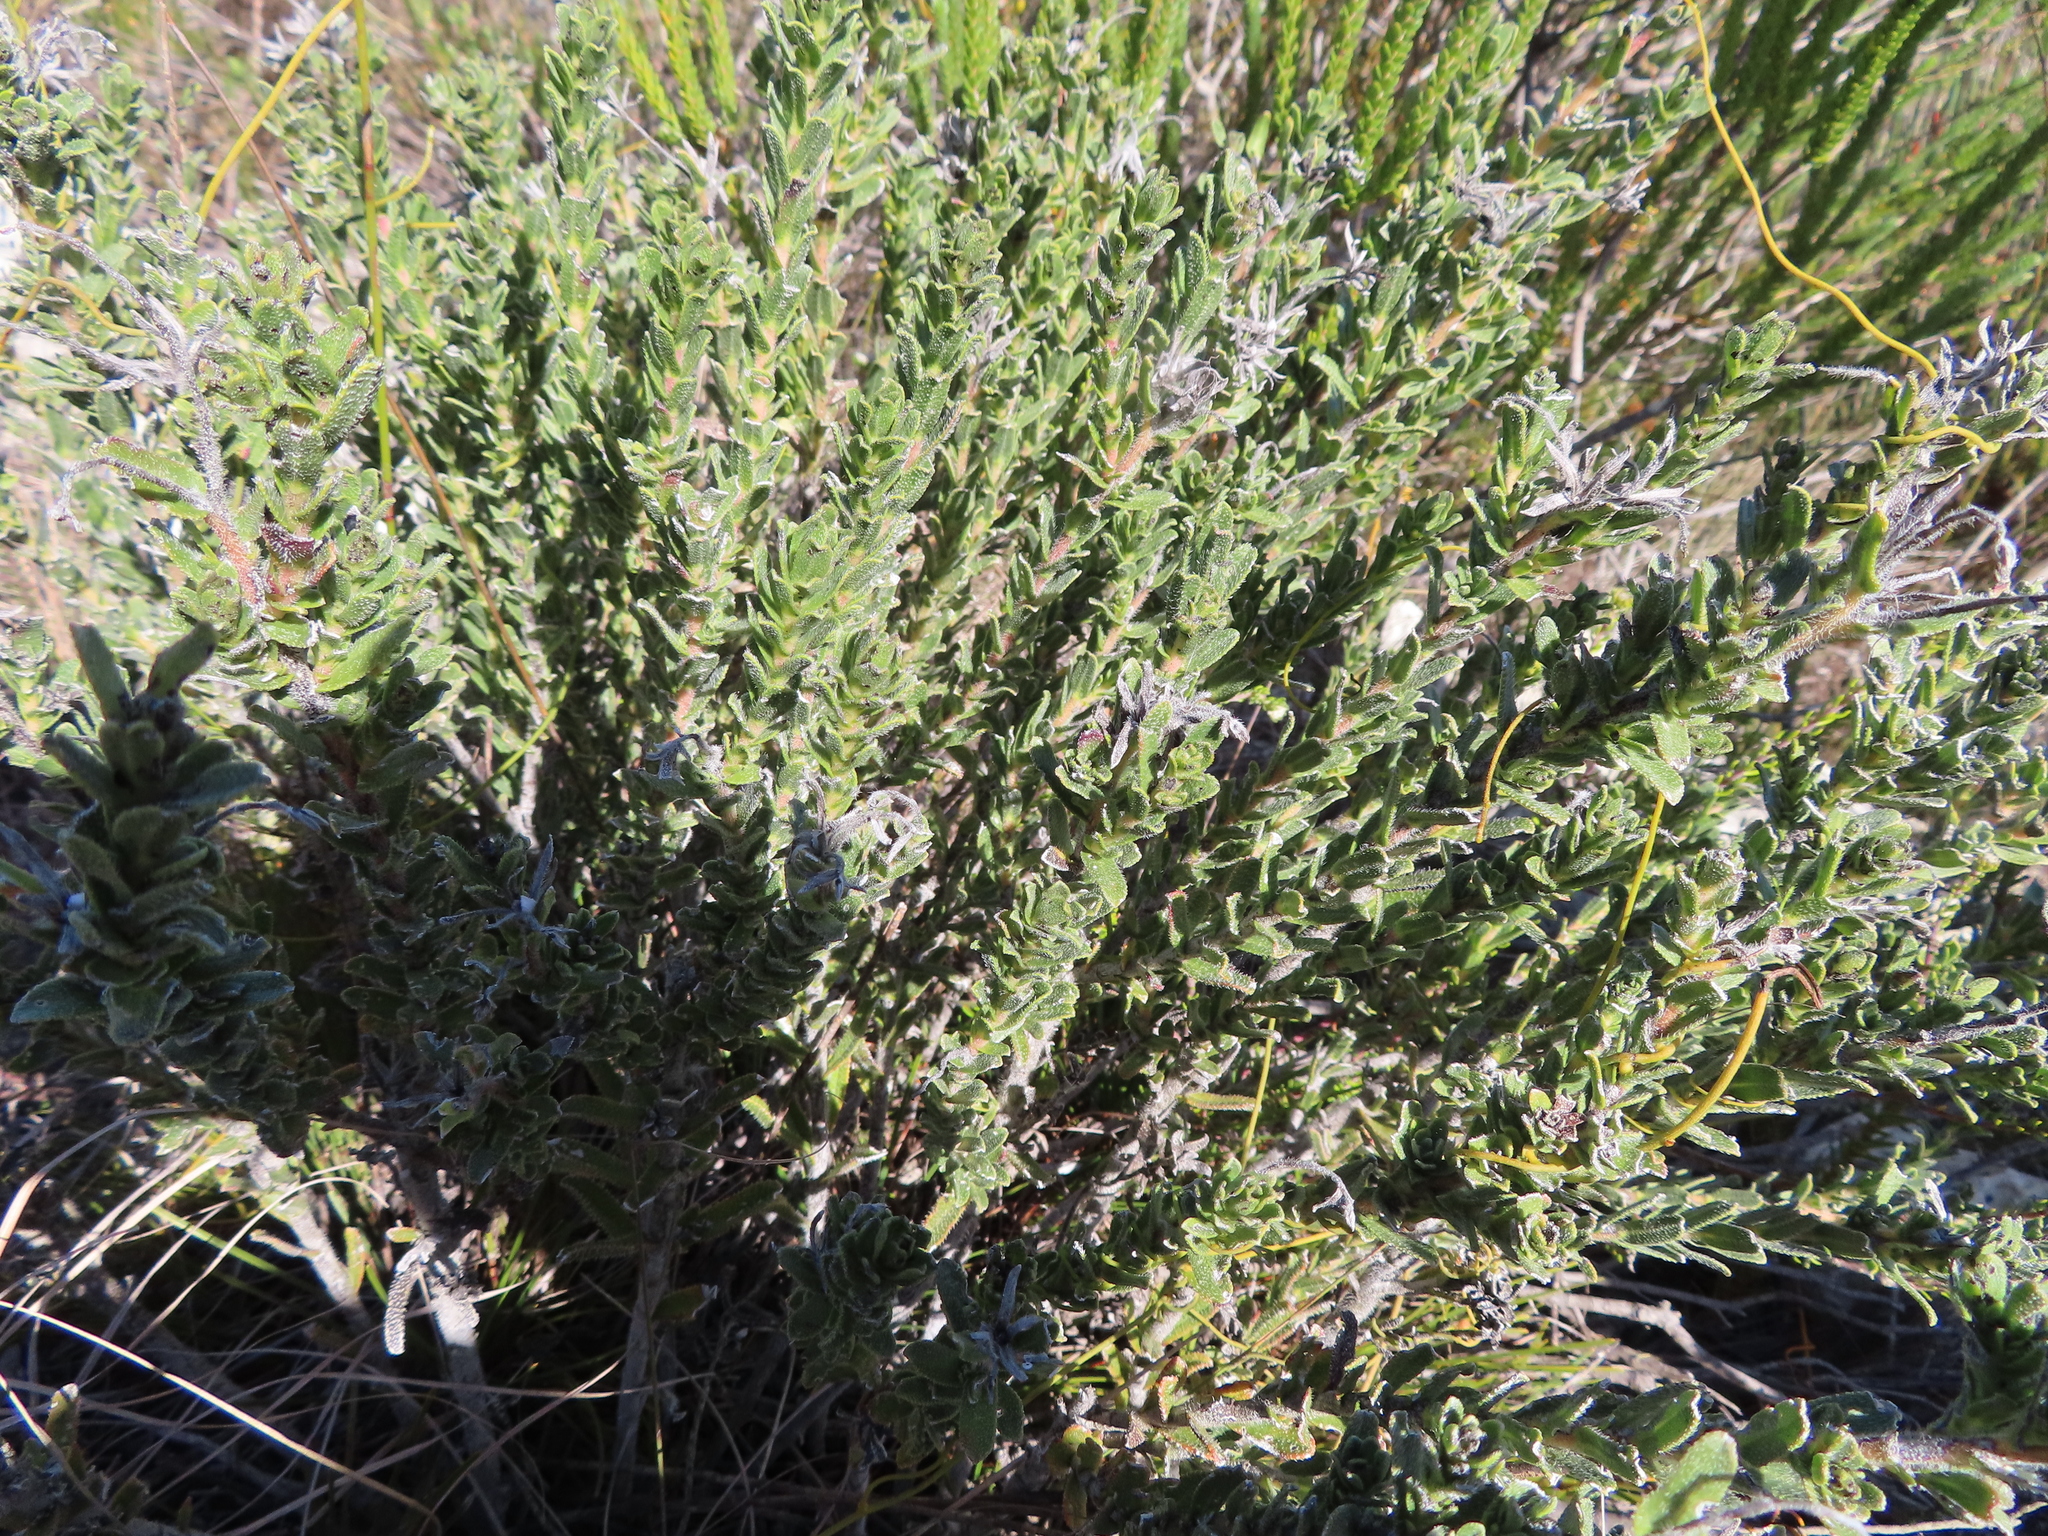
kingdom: Plantae
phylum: Tracheophyta
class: Magnoliopsida
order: Boraginales
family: Boraginaceae
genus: Lobostemon
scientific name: Lobostemon trigonus
